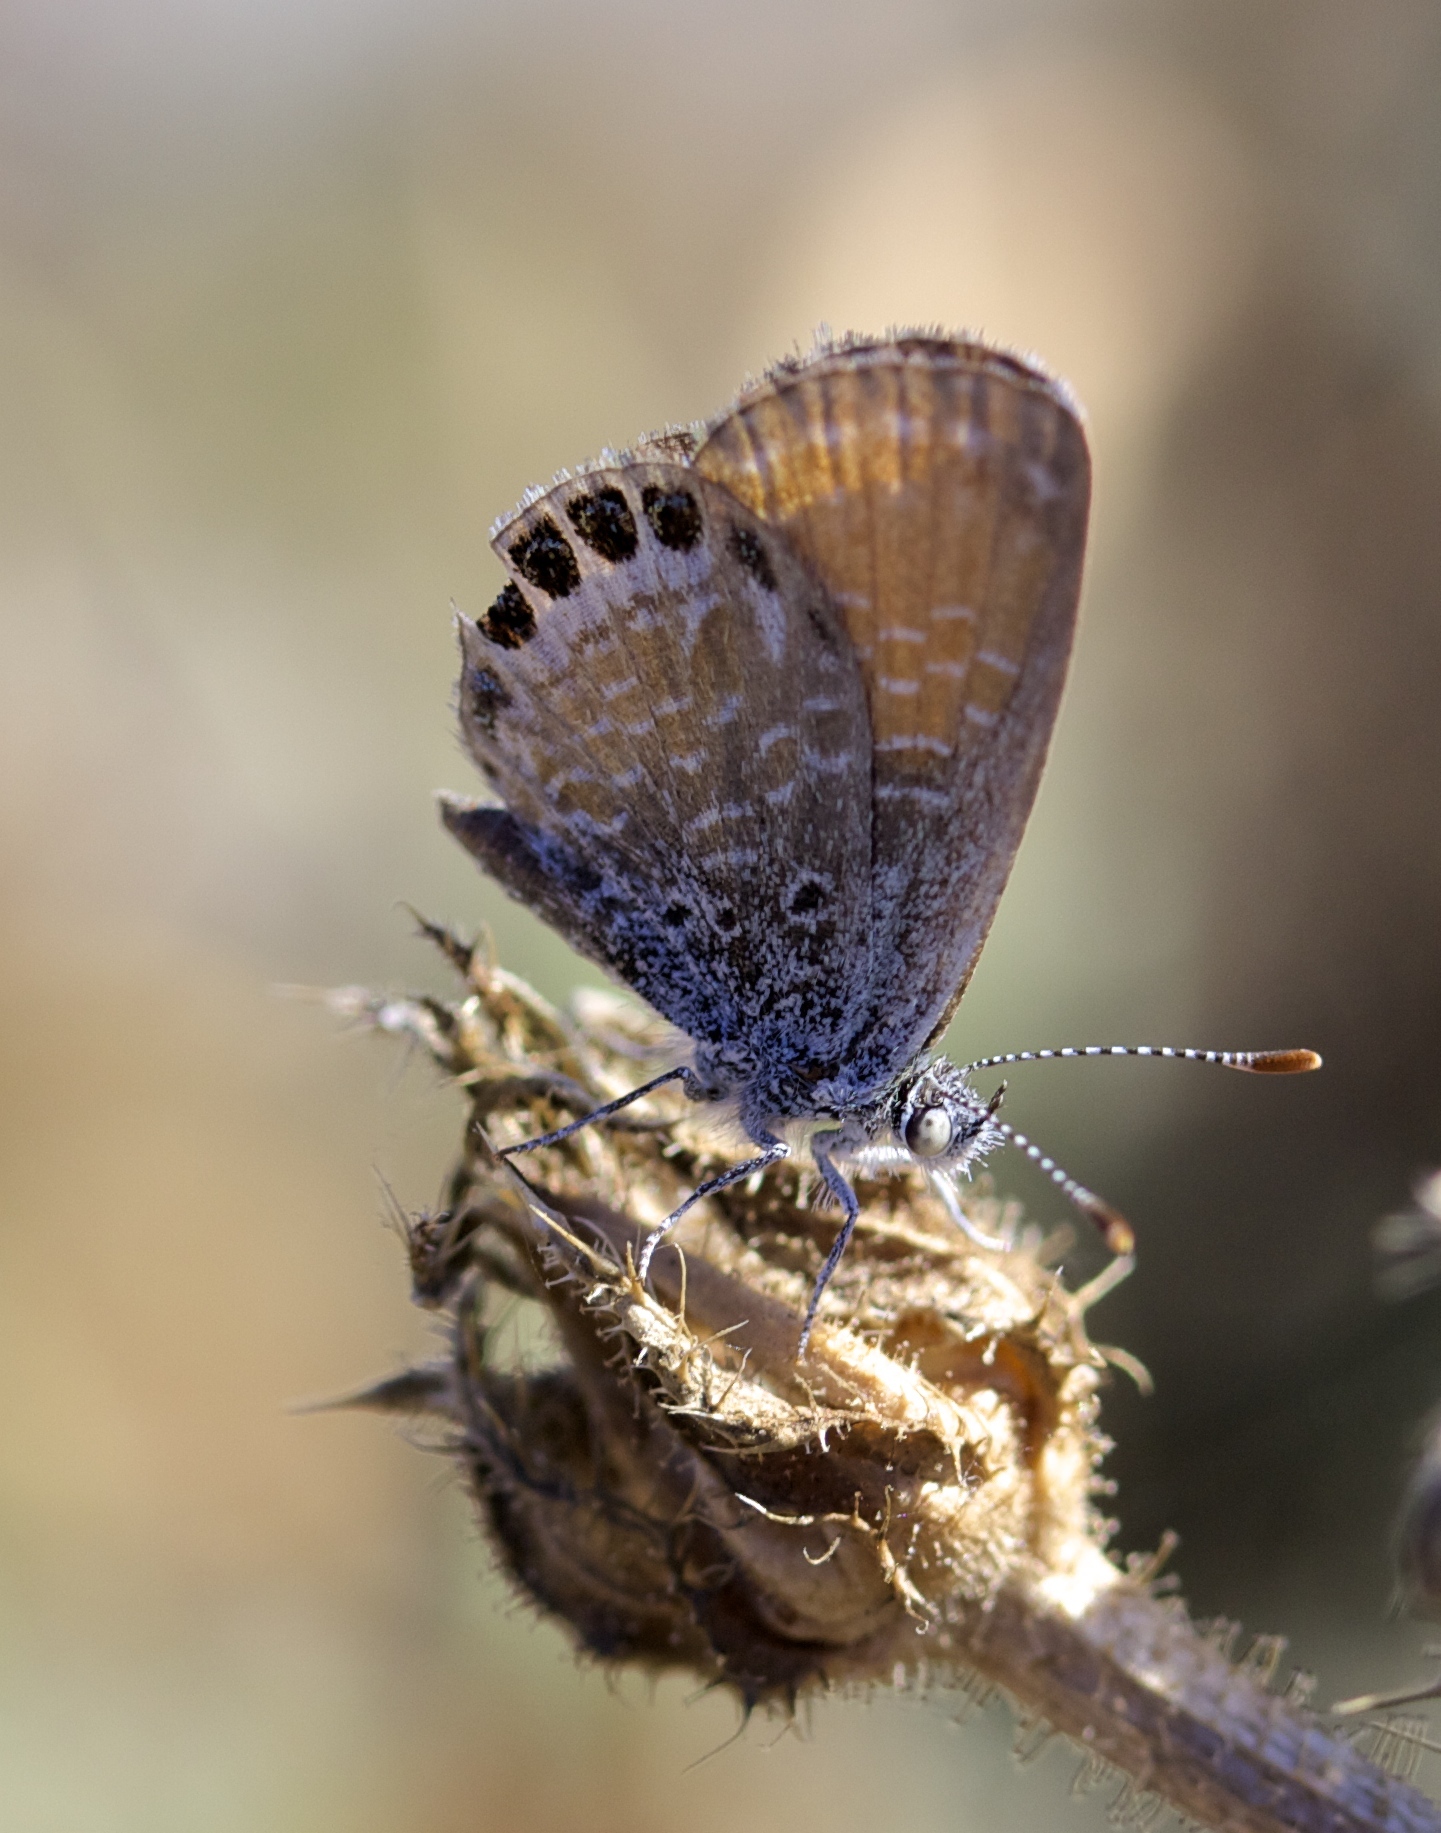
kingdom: Animalia
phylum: Arthropoda
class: Insecta
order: Lepidoptera
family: Lycaenidae
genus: Brephidium
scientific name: Brephidium exilis
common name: Pygmy blue
